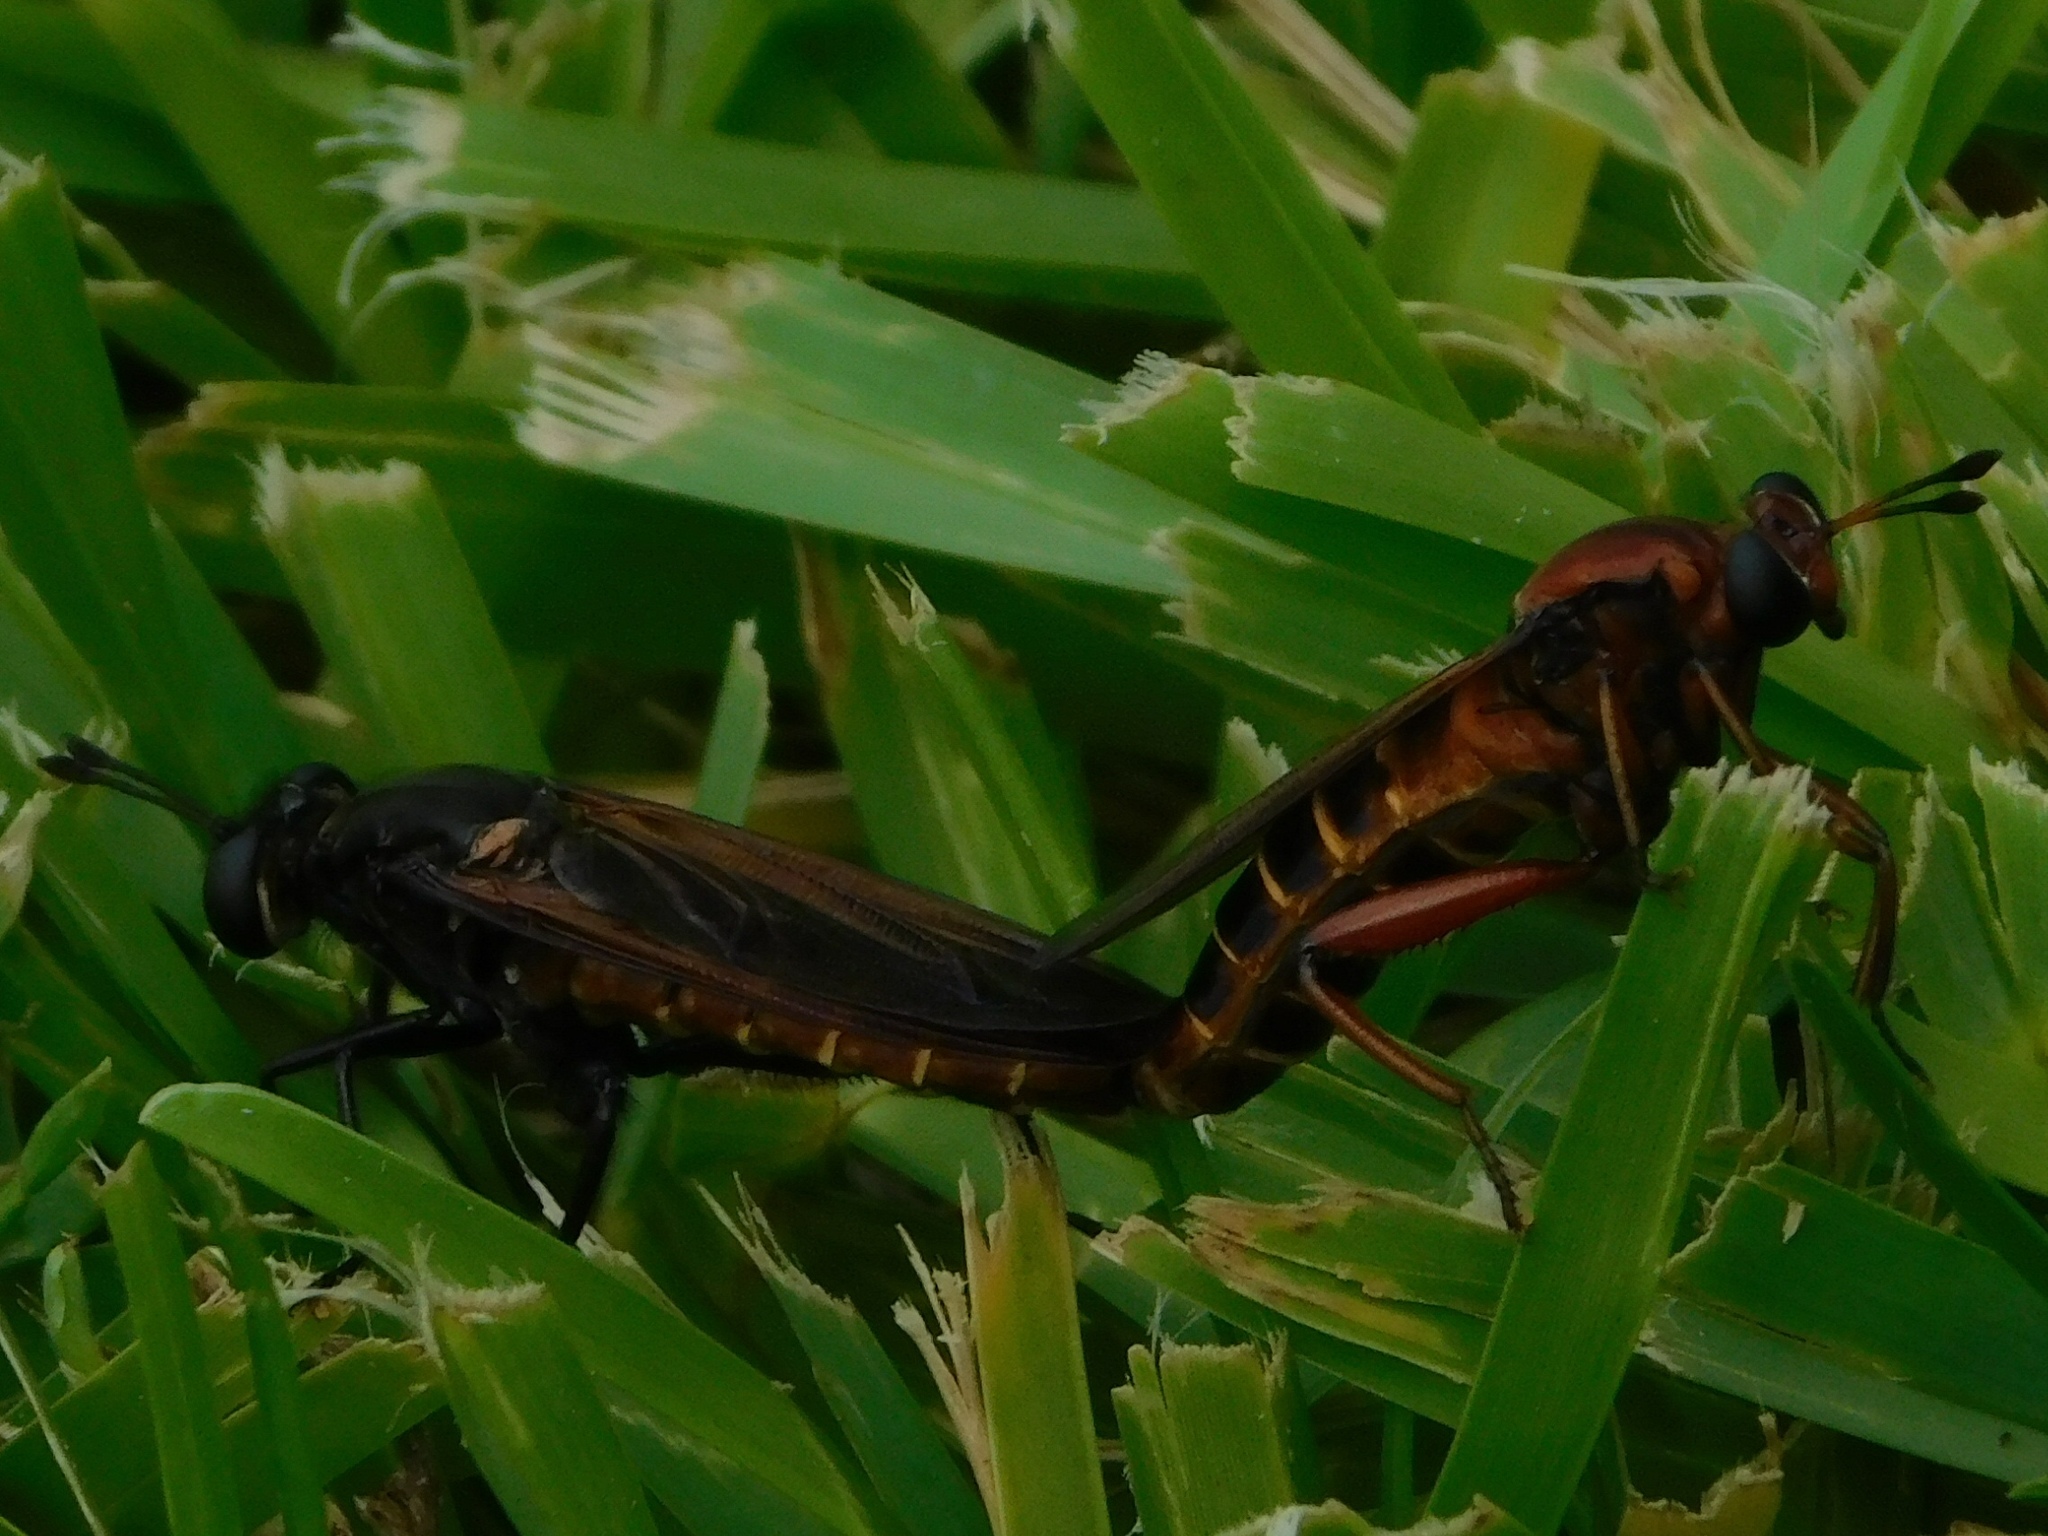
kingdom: Animalia
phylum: Arthropoda
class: Insecta
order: Diptera
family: Mydidae
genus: Mydas
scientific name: Mydas maculiventris
